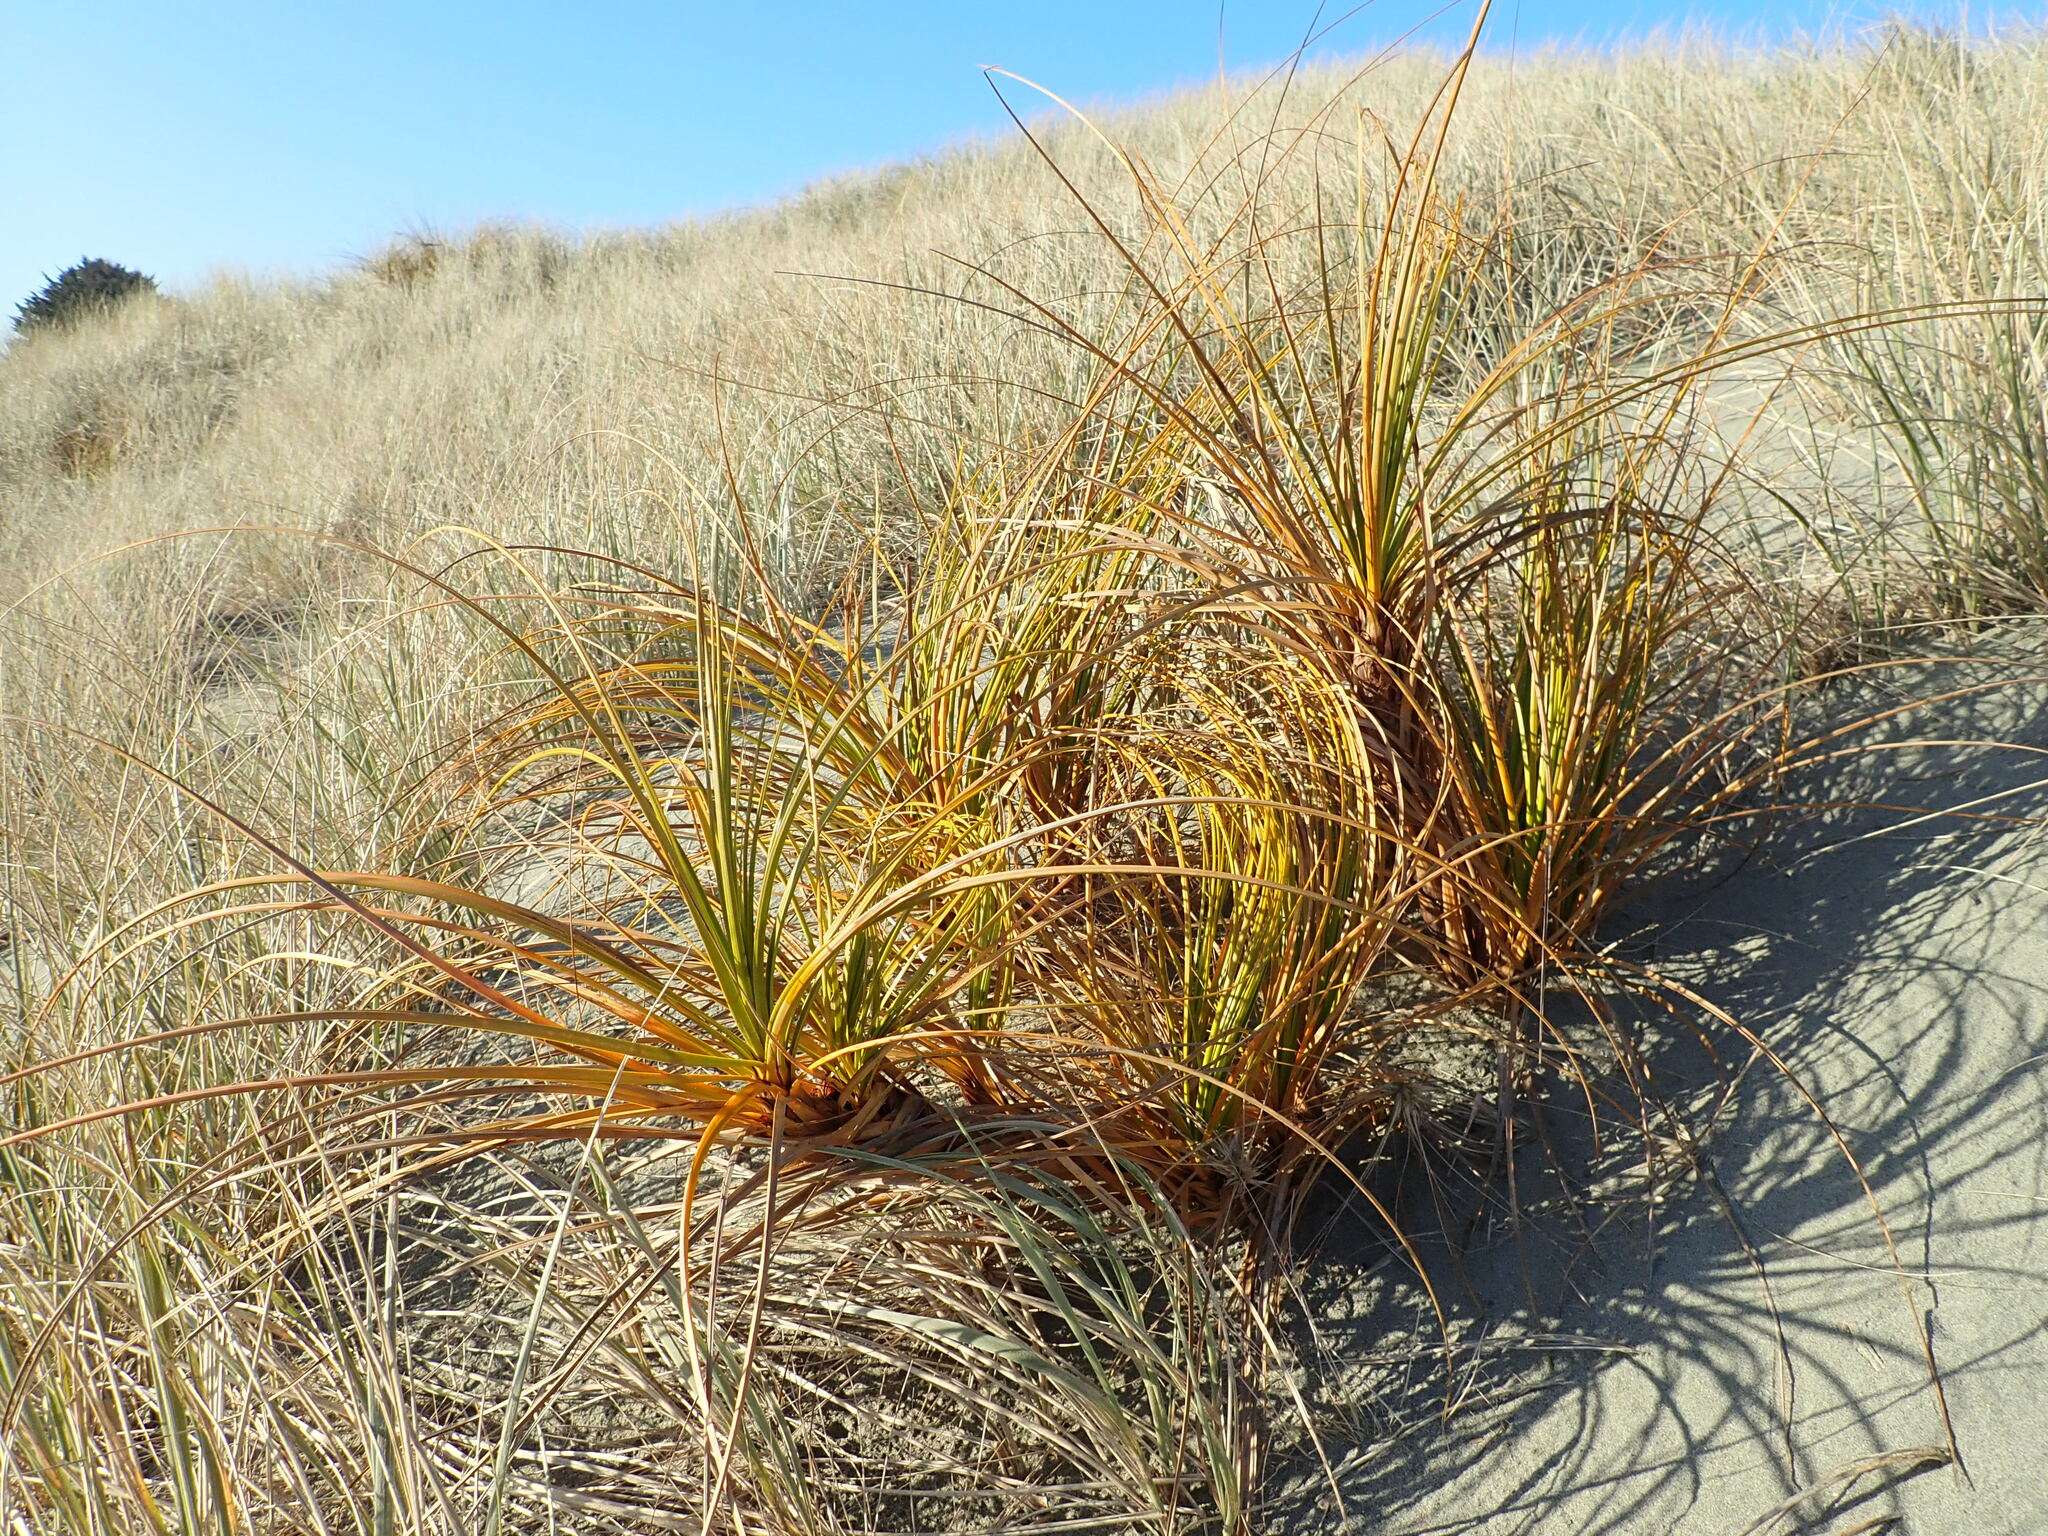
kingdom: Plantae
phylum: Tracheophyta
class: Liliopsida
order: Poales
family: Cyperaceae
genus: Ficinia
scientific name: Ficinia spiralis
